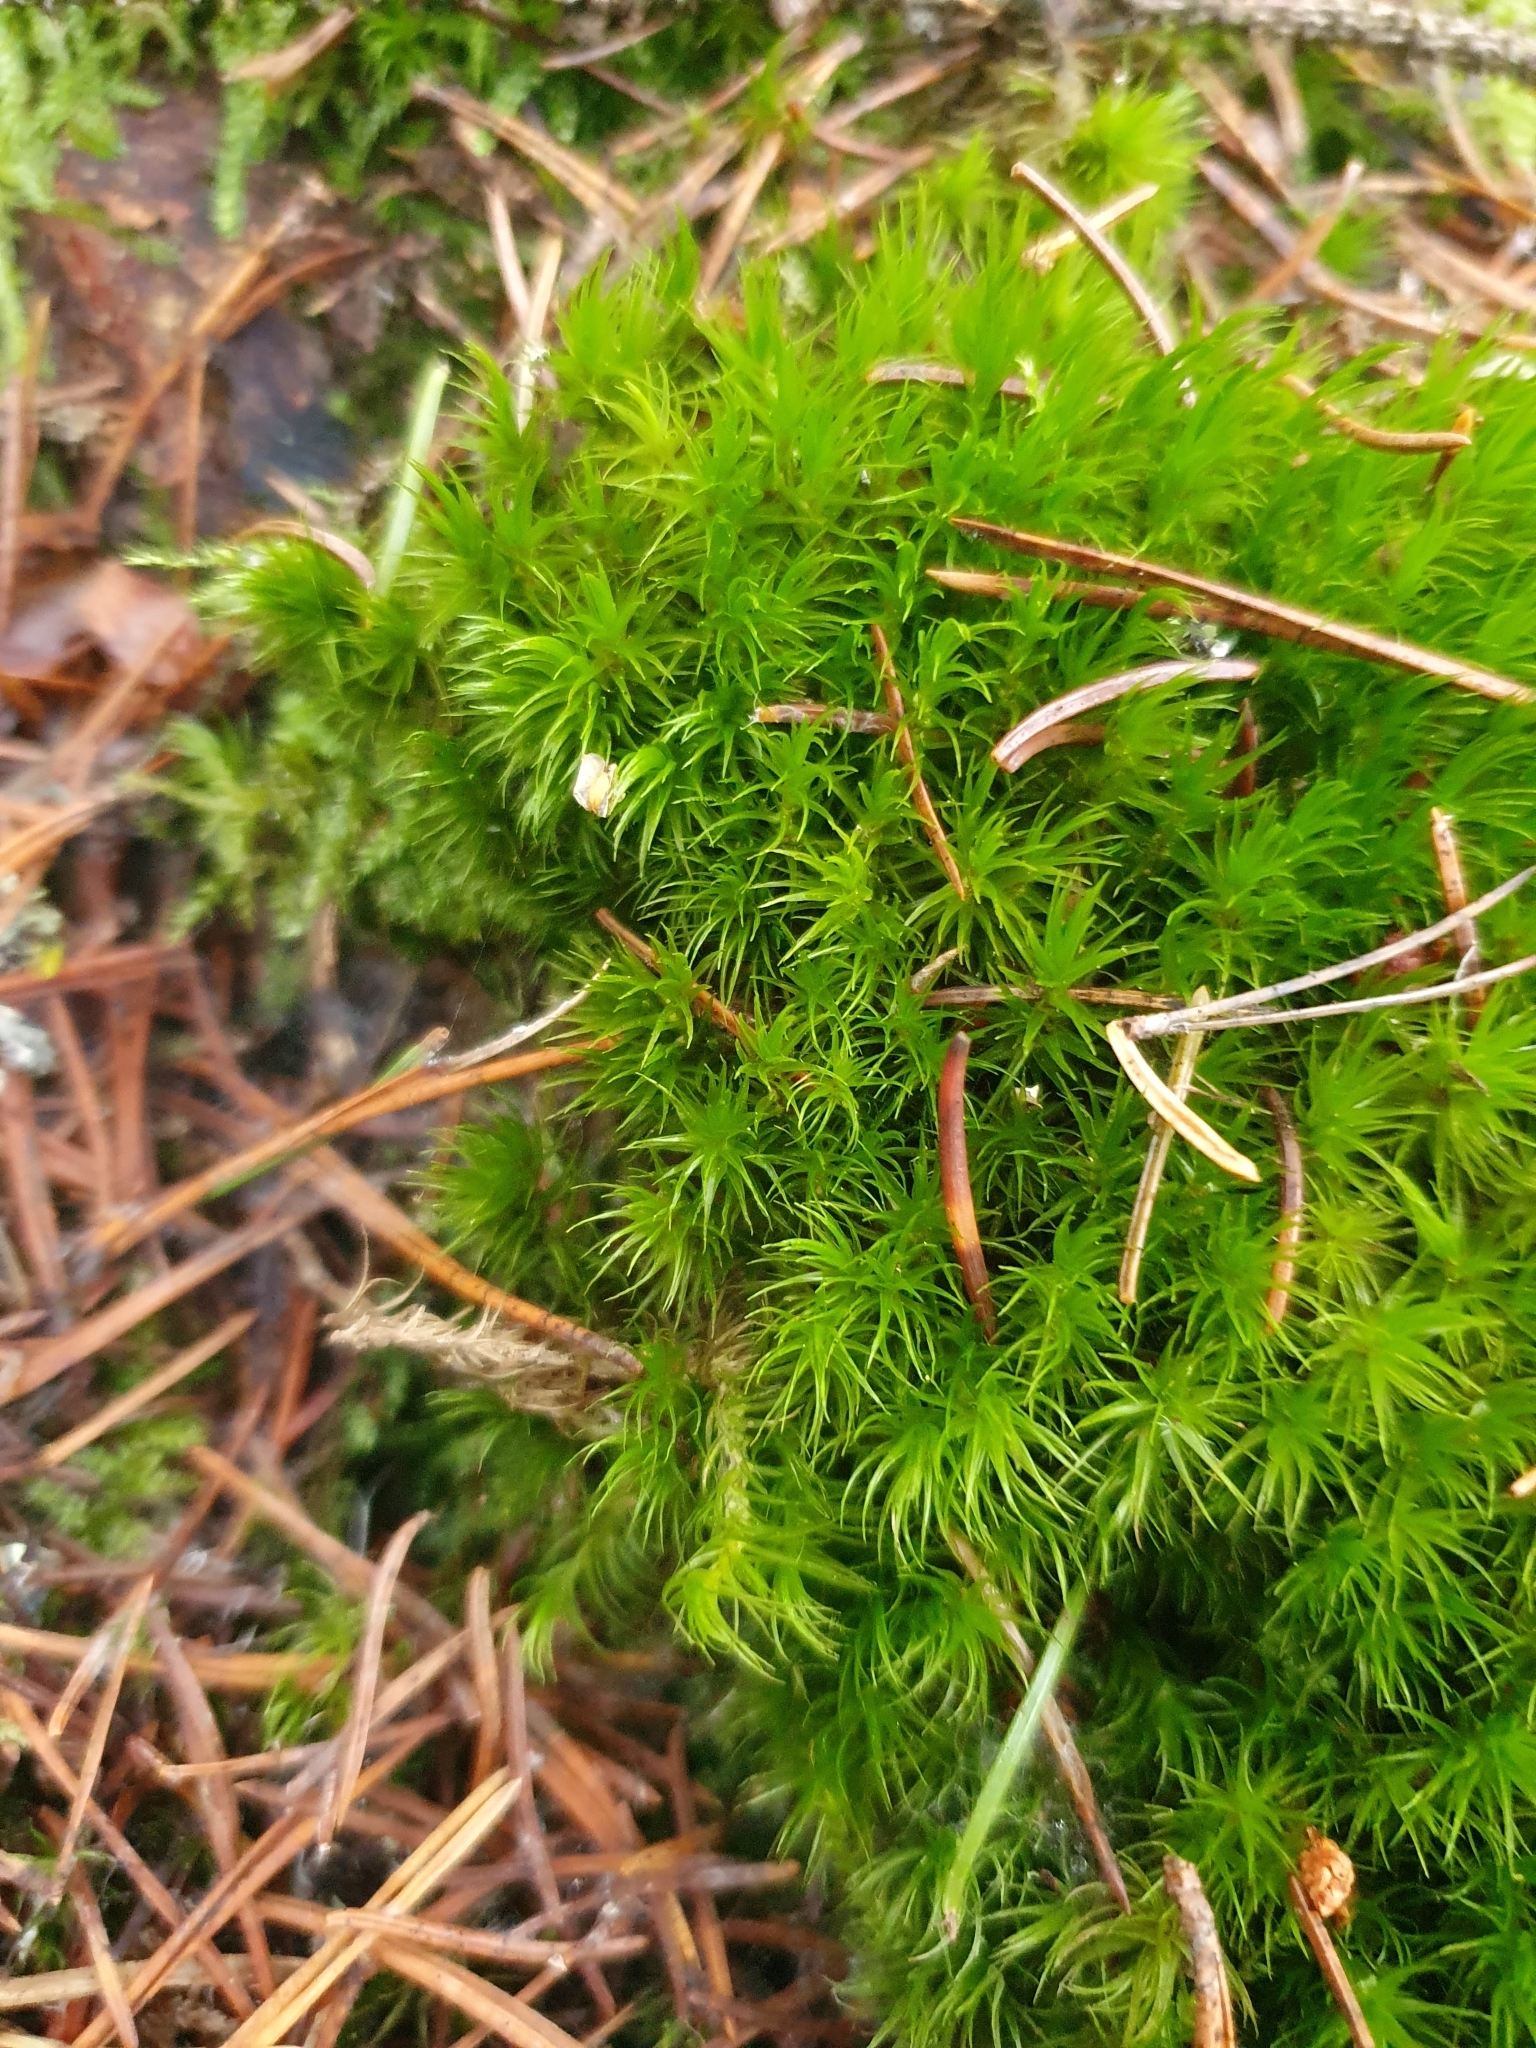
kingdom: Plantae
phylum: Bryophyta
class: Bryopsida
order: Dicranales
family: Dicranaceae
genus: Dicranum
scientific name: Dicranum scoparium
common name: Broom fork-moss
